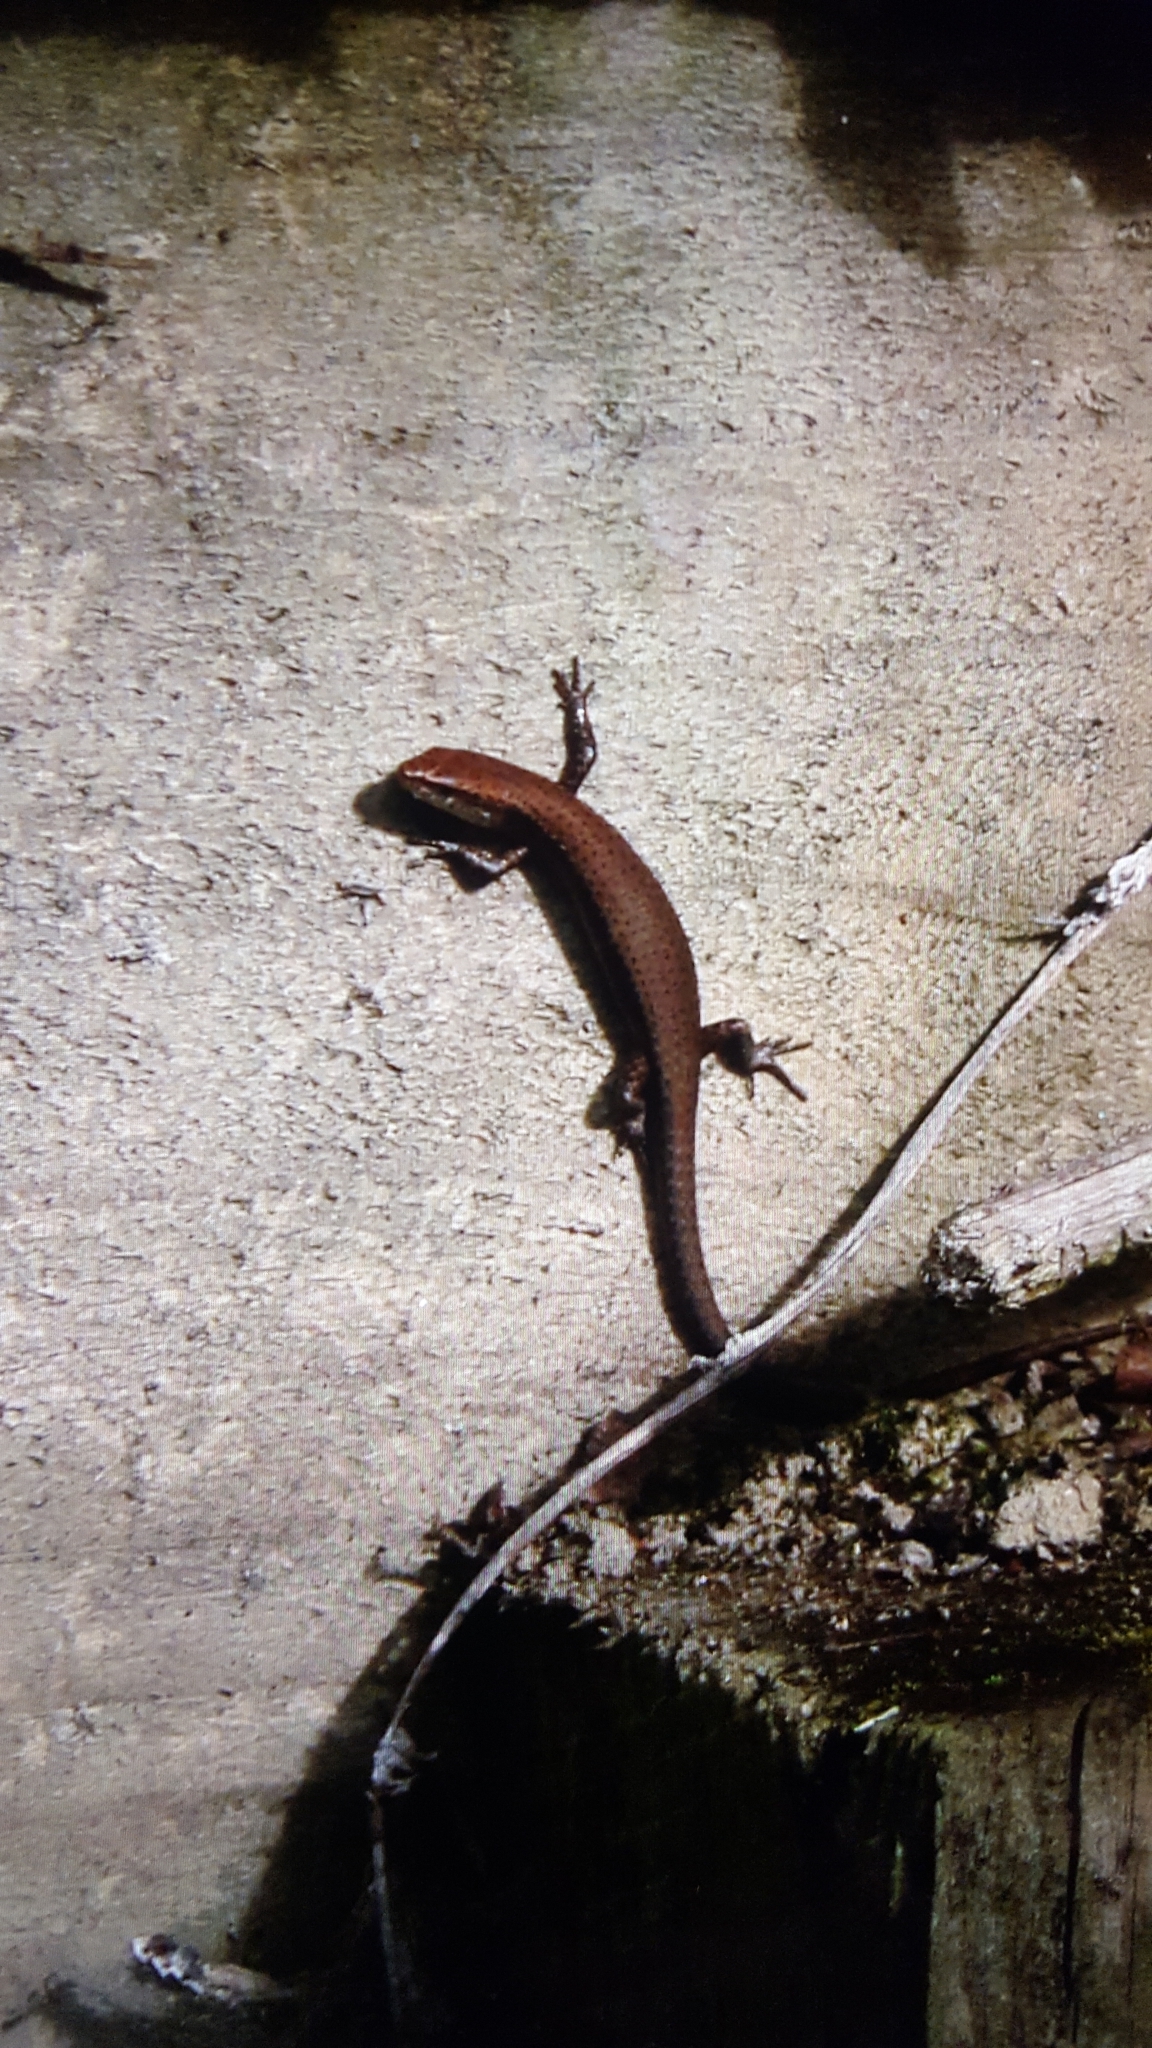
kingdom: Animalia
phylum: Chordata
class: Squamata
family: Scincidae
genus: Lampropholis
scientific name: Lampropholis delicata
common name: Plague skink
